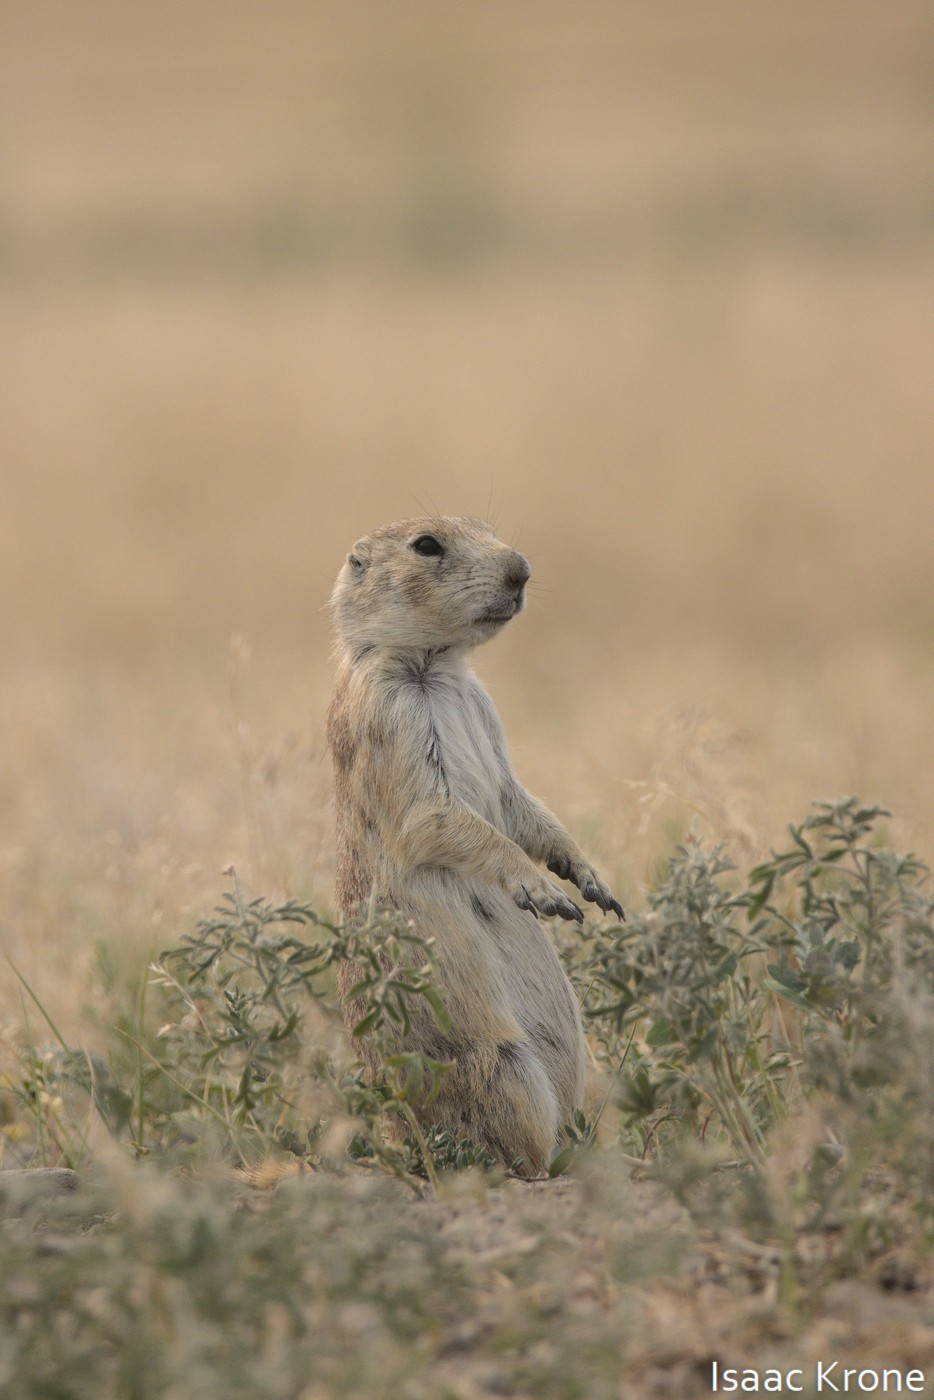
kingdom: Animalia
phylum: Chordata
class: Mammalia
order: Rodentia
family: Sciuridae
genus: Cynomys
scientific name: Cynomys ludovicianus
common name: Black-tailed prairie dog
